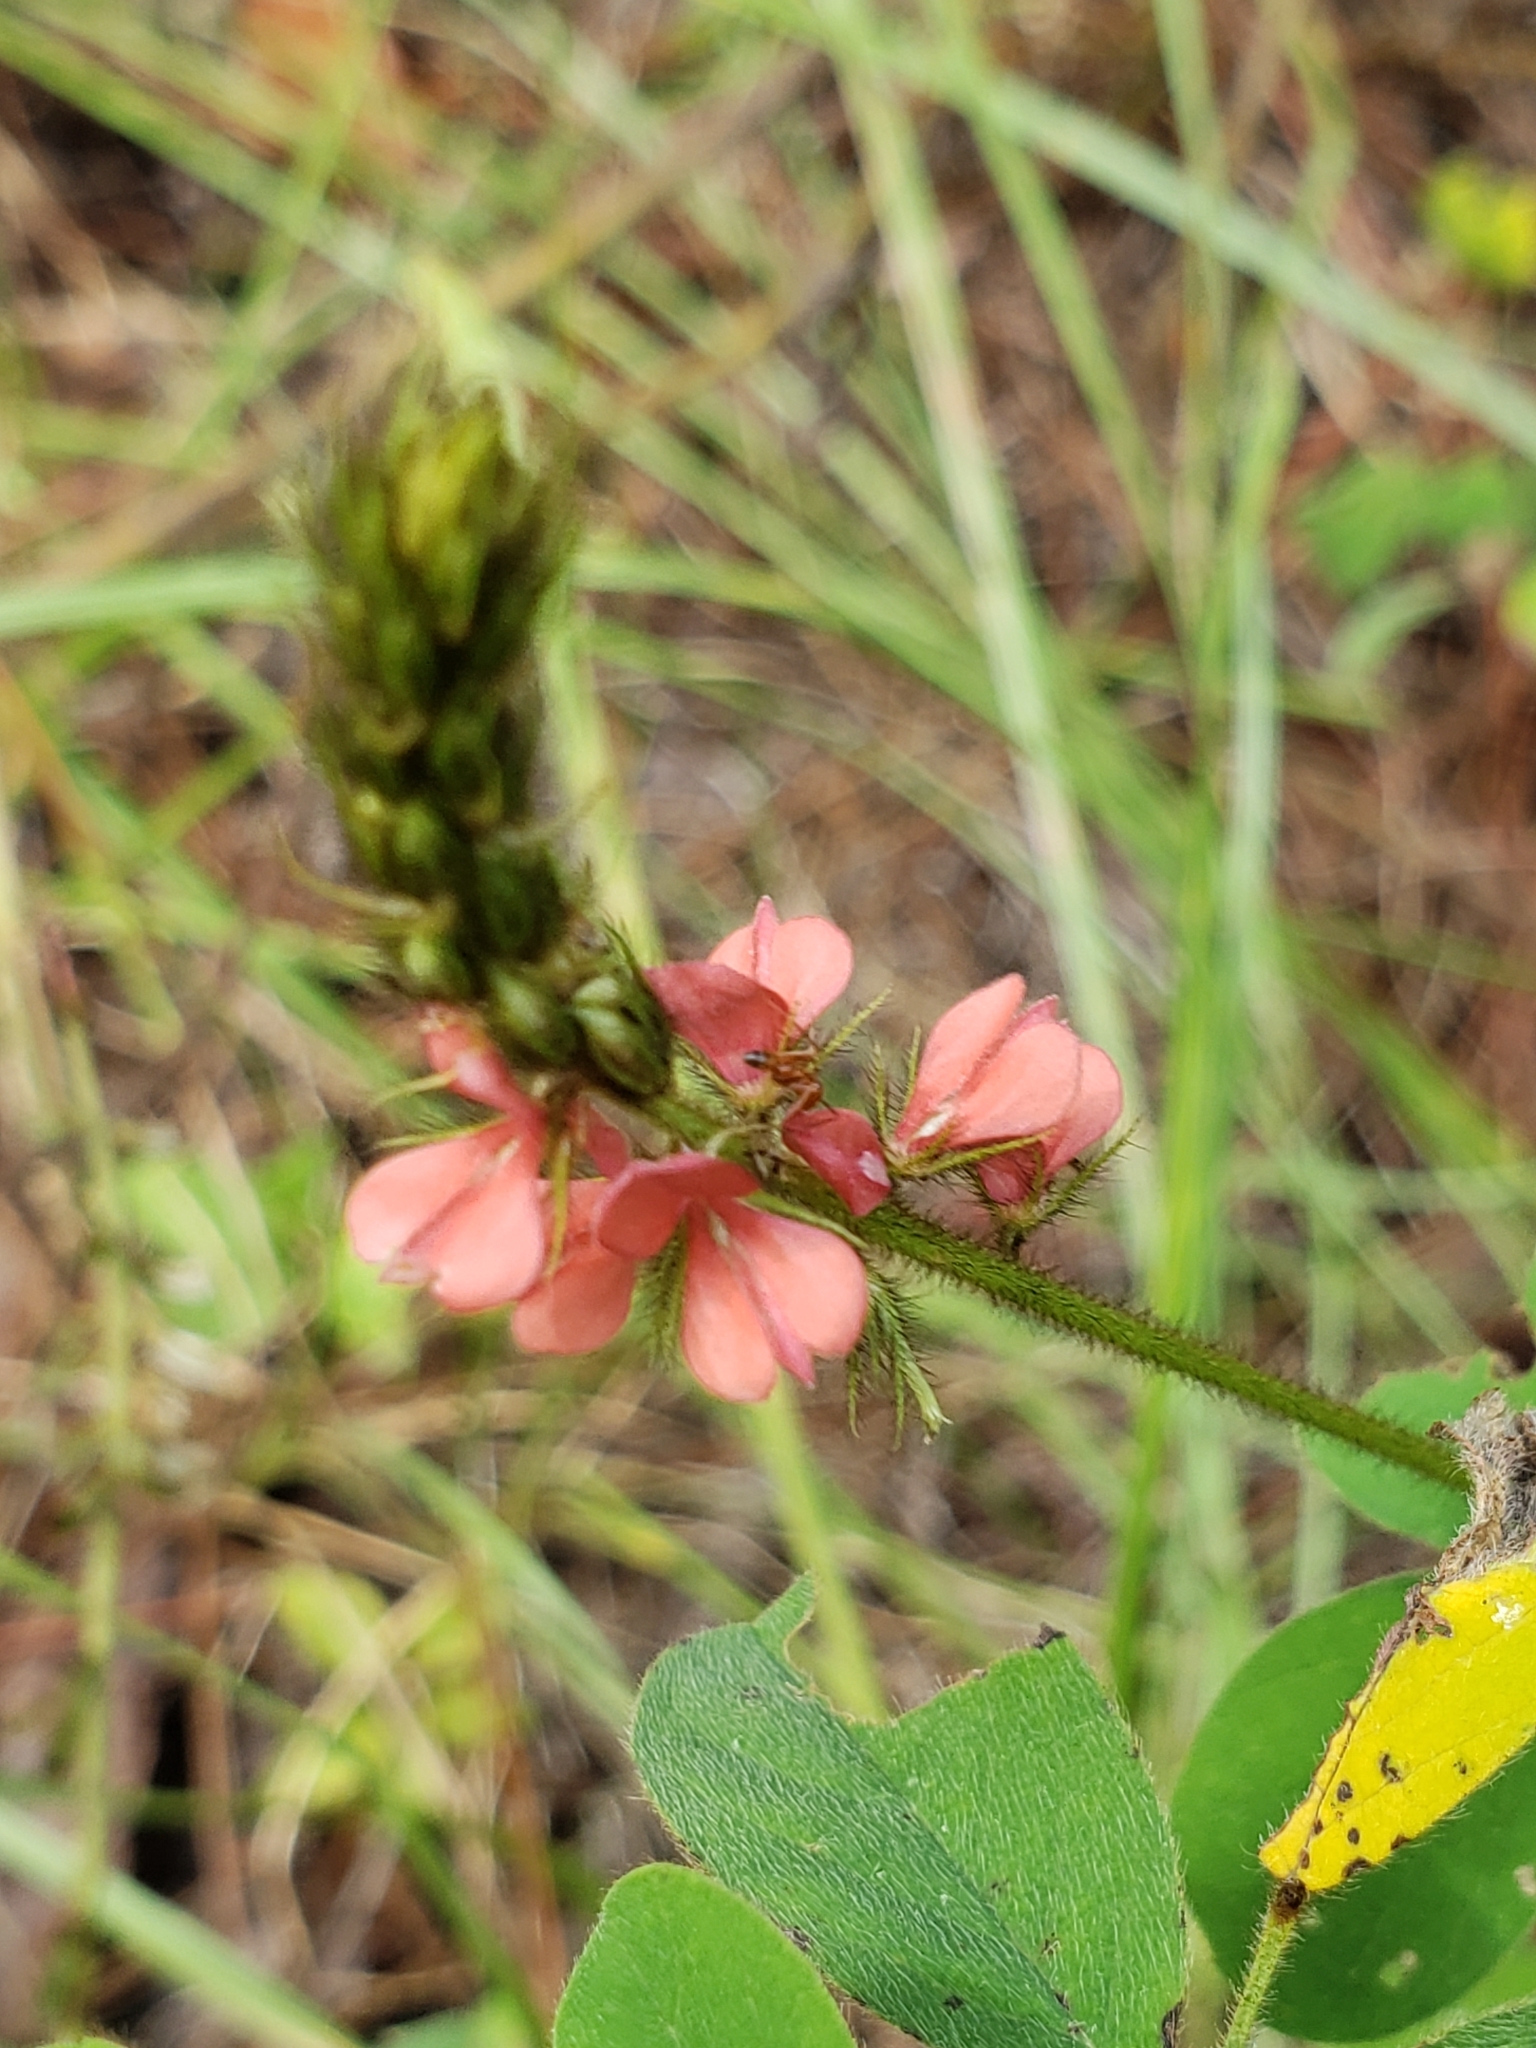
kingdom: Plantae
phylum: Tracheophyta
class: Magnoliopsida
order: Fabales
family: Fabaceae
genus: Indigofera
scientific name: Indigofera hirsuta
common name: Hairy indigo
